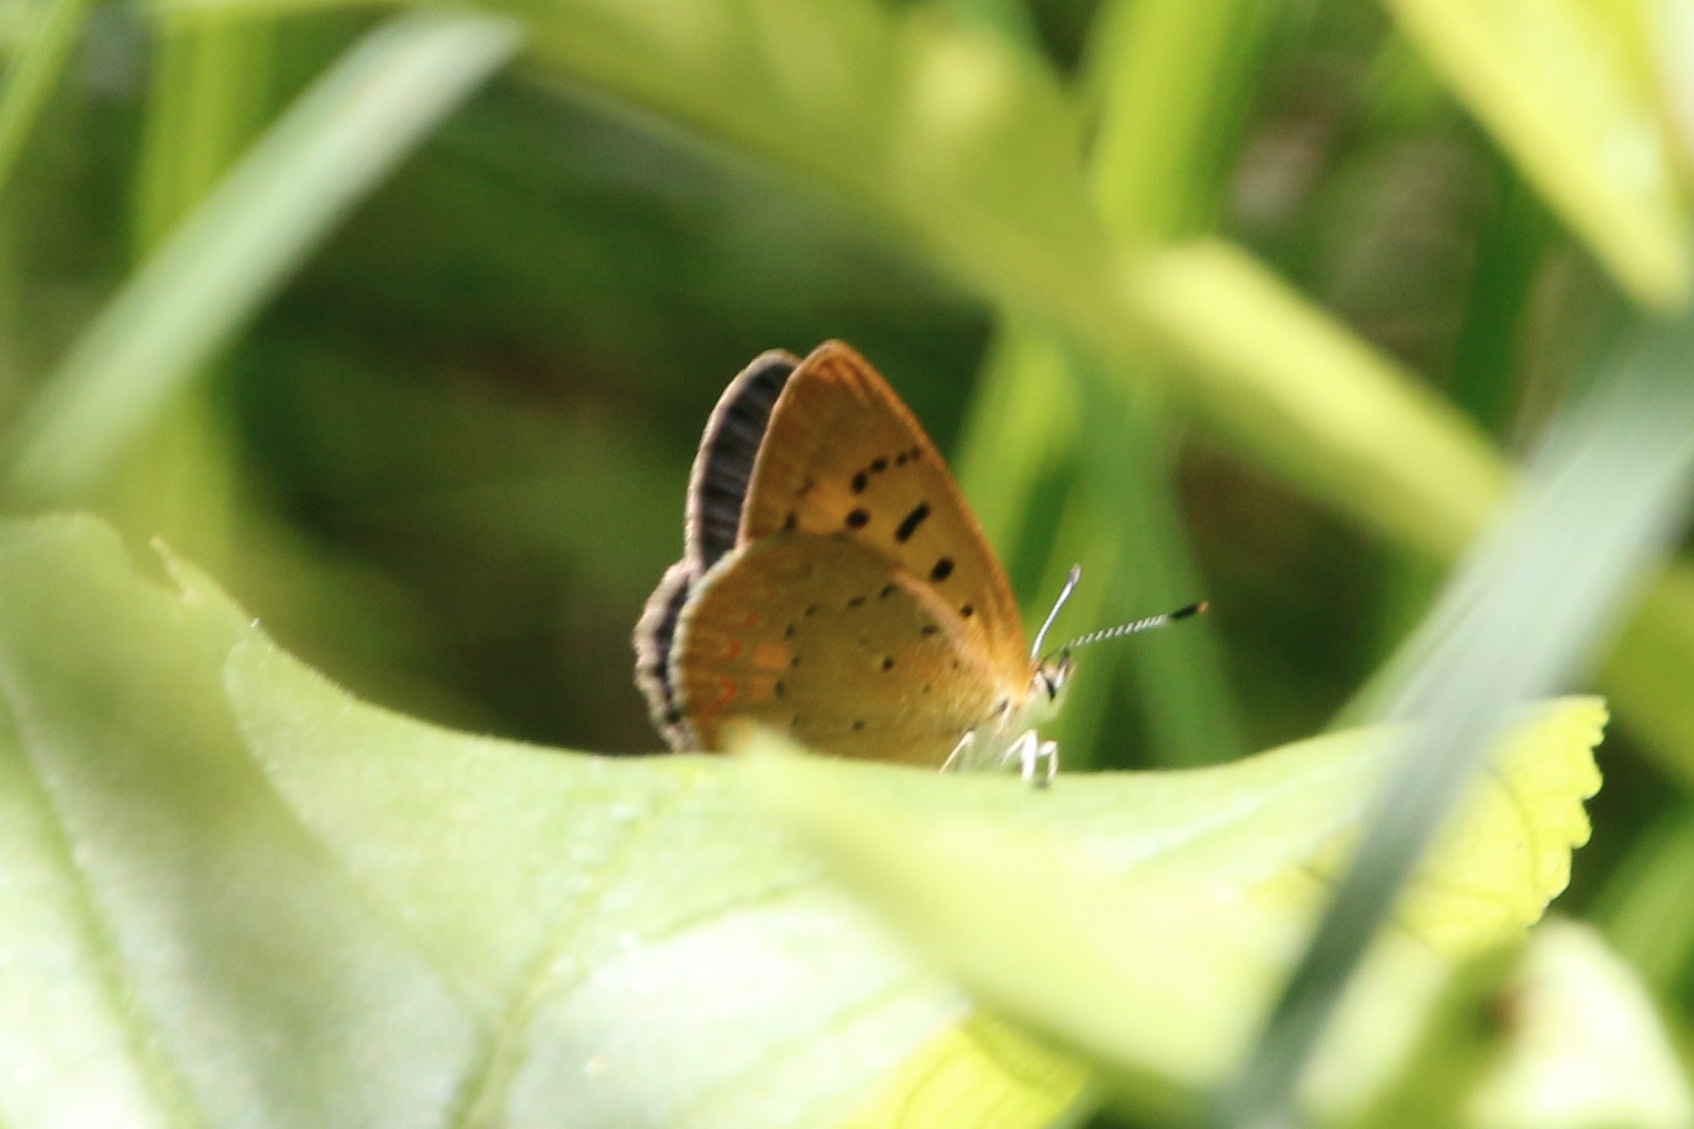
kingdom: Animalia
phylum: Arthropoda
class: Insecta
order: Lepidoptera
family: Lycaenidae
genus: Tharsalea
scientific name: Tharsalea helloides
